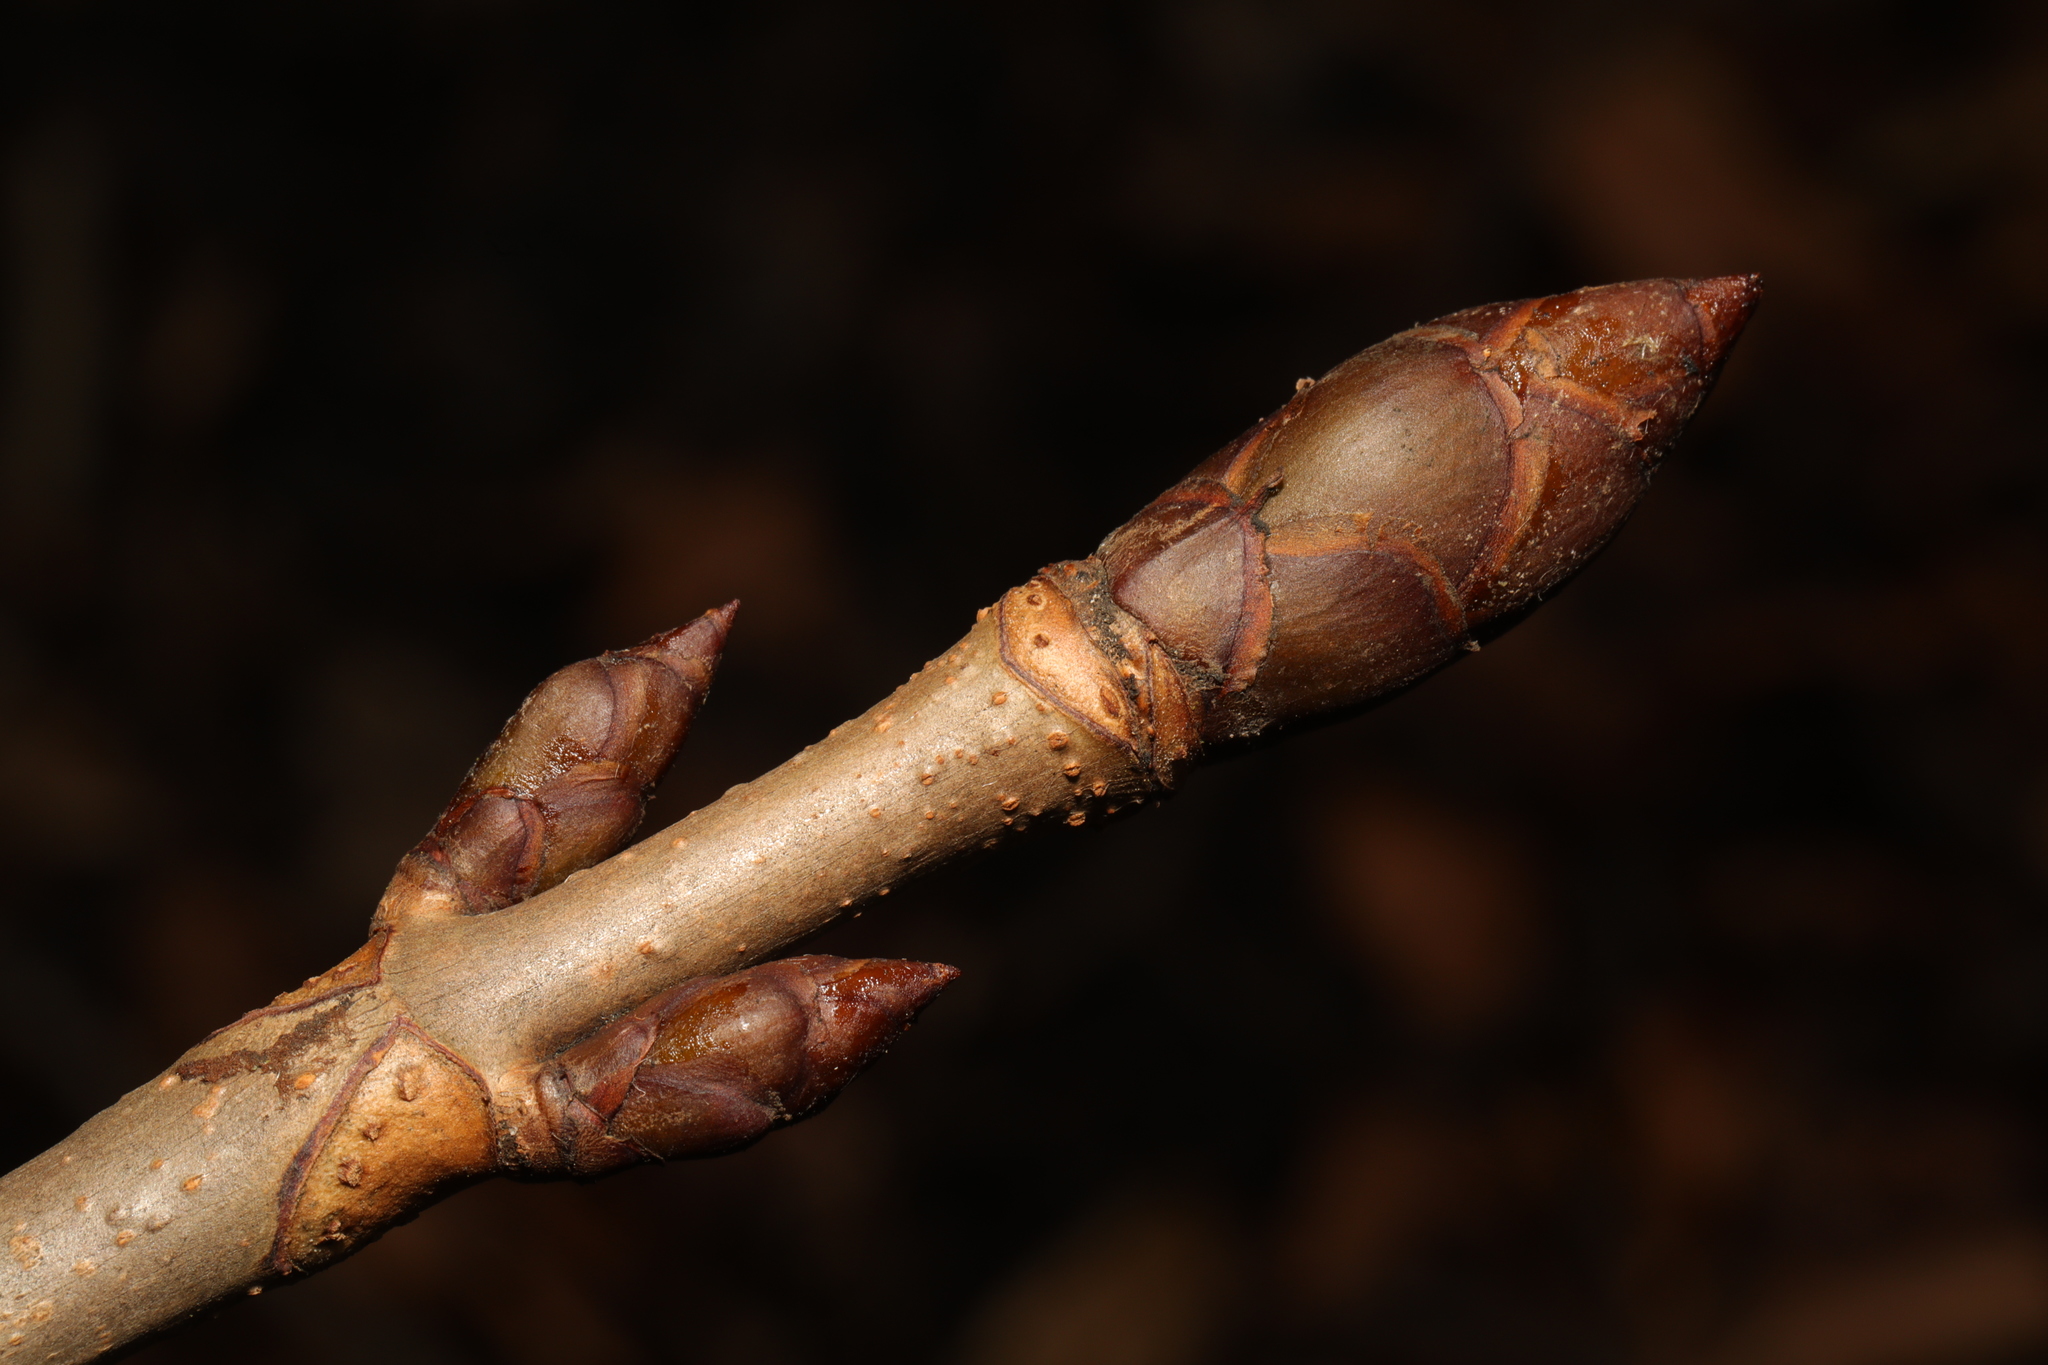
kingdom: Plantae
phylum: Tracheophyta
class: Magnoliopsida
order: Sapindales
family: Sapindaceae
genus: Aesculus
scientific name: Aesculus hippocastanum
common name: Horse-chestnut
